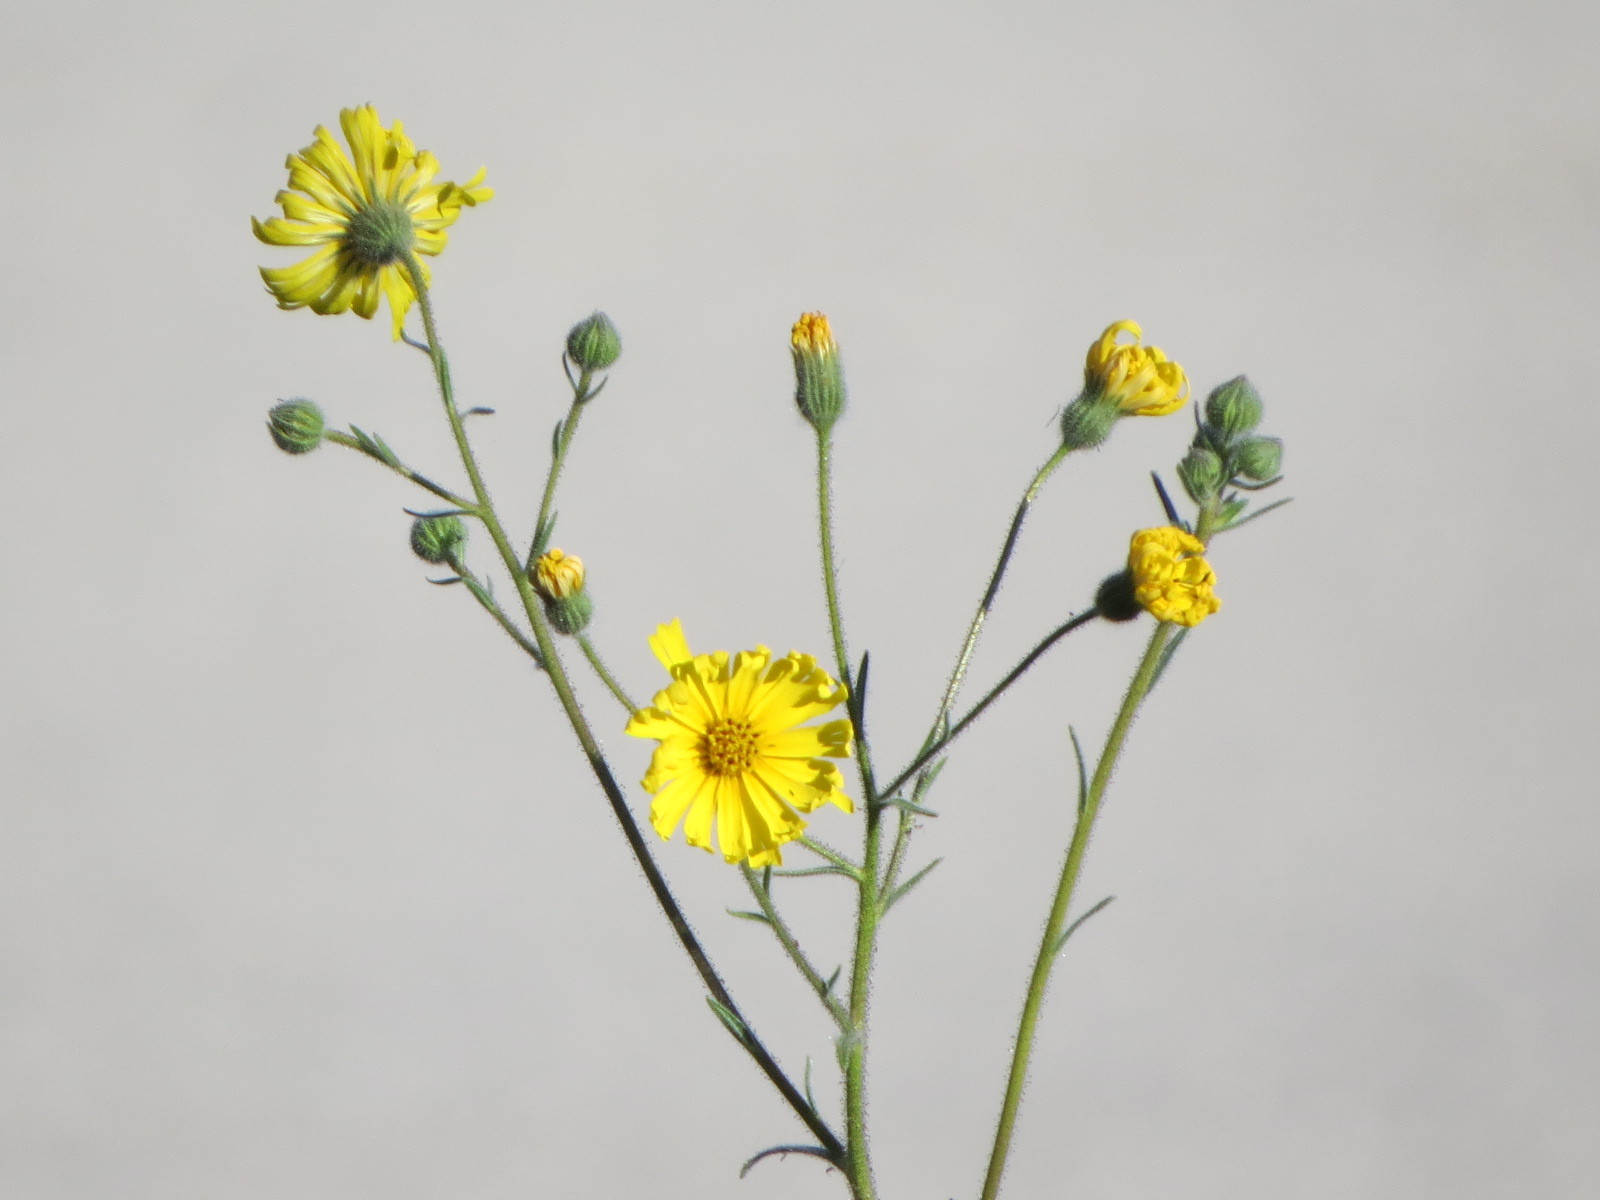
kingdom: Plantae
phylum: Tracheophyta
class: Magnoliopsida
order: Asterales
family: Asteraceae
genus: Madia
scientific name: Madia elegans
